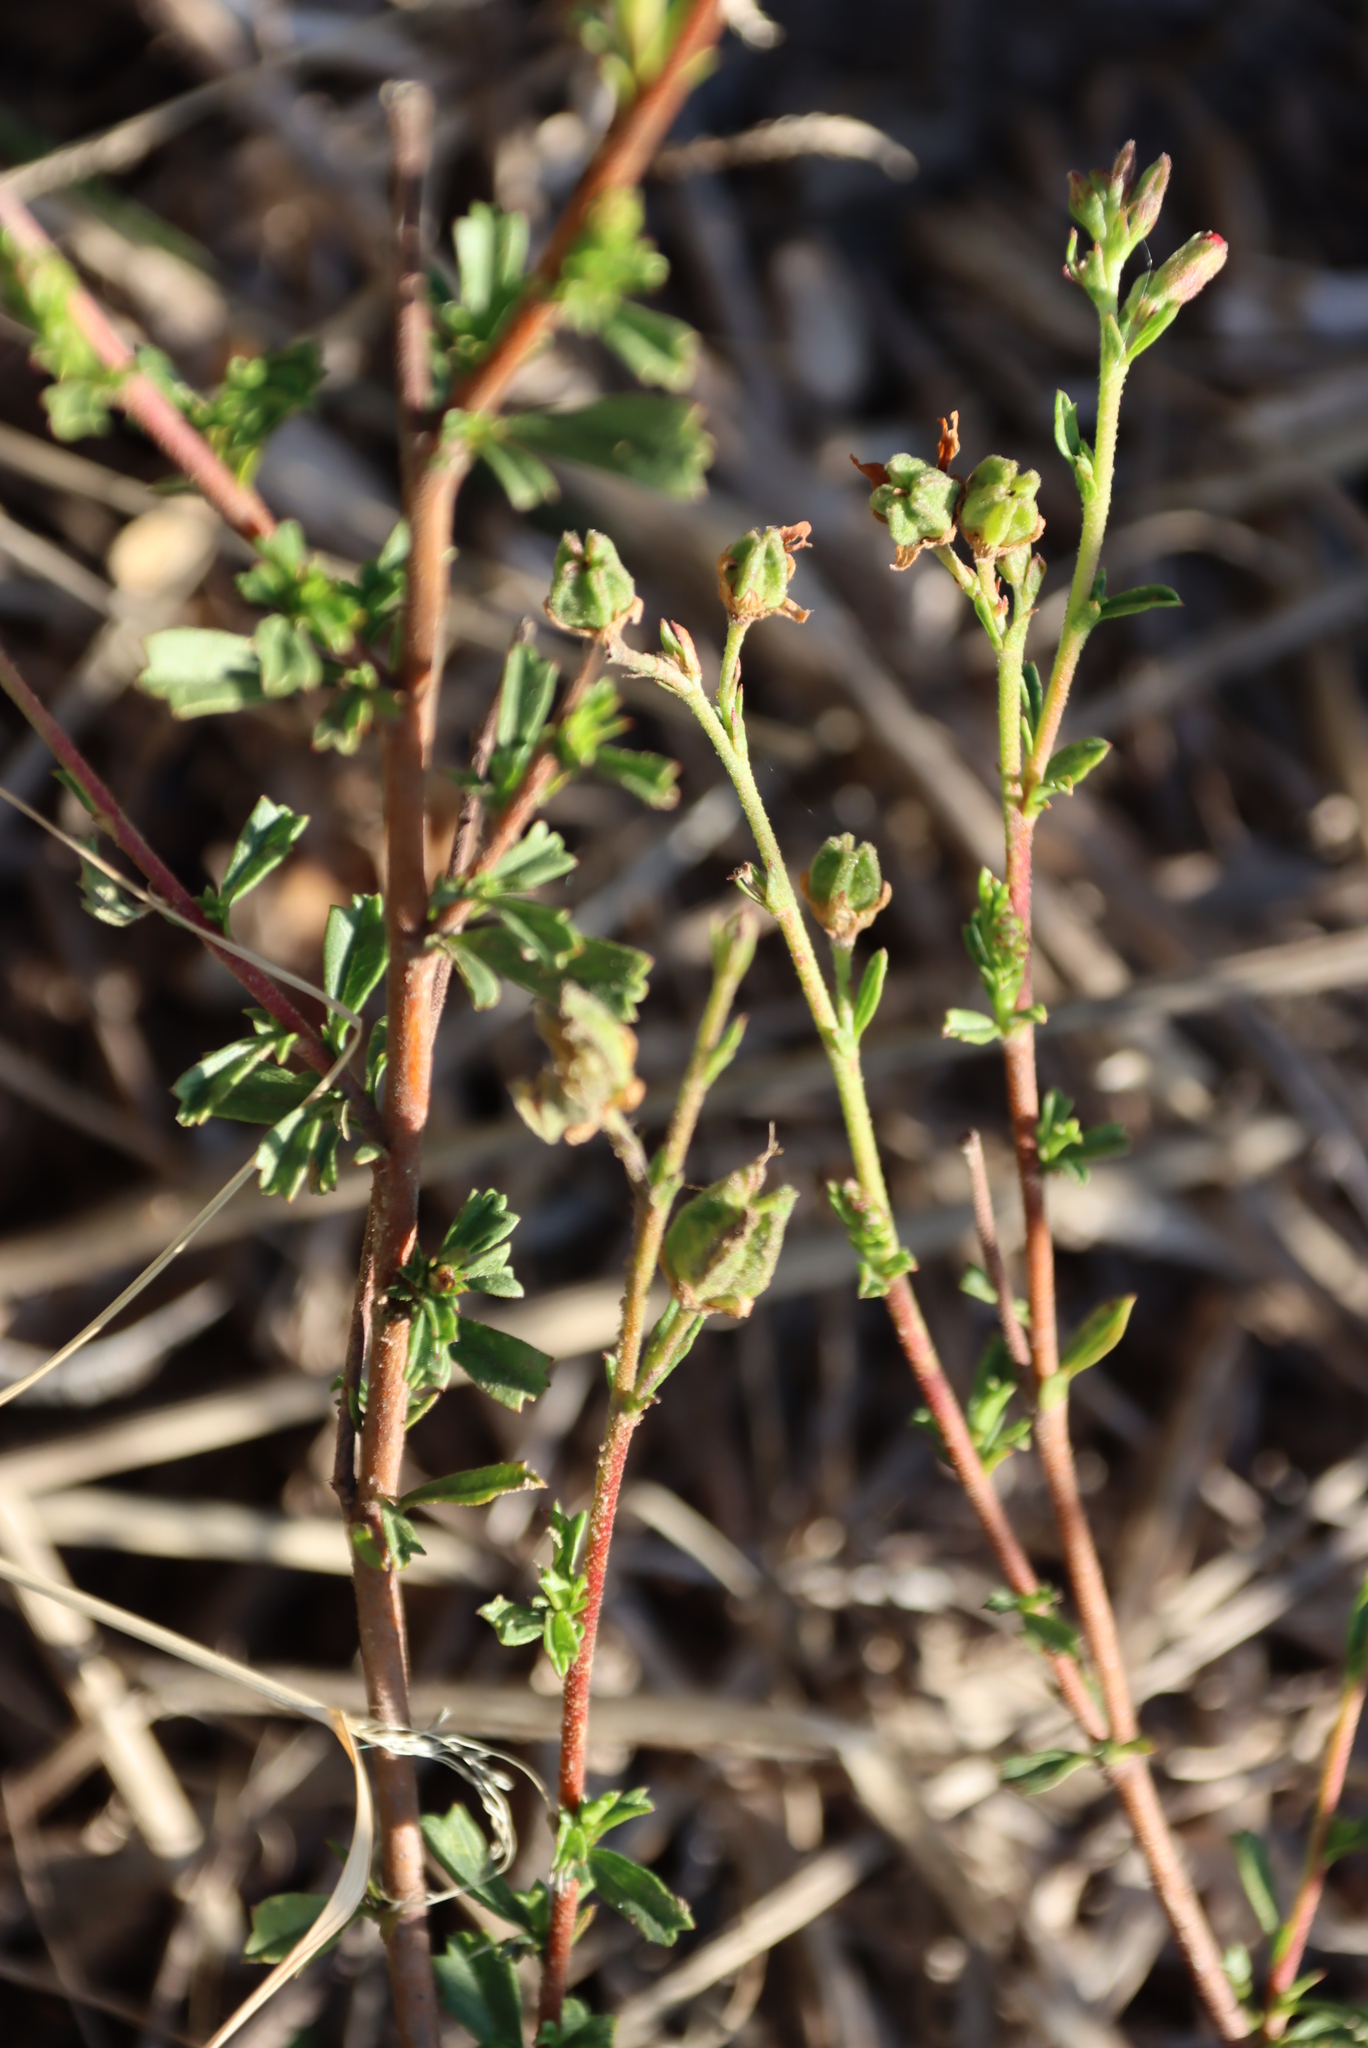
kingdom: Plantae
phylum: Tracheophyta
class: Magnoliopsida
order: Malvales
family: Malvaceae
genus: Hermannia
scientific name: Hermannia flammea
